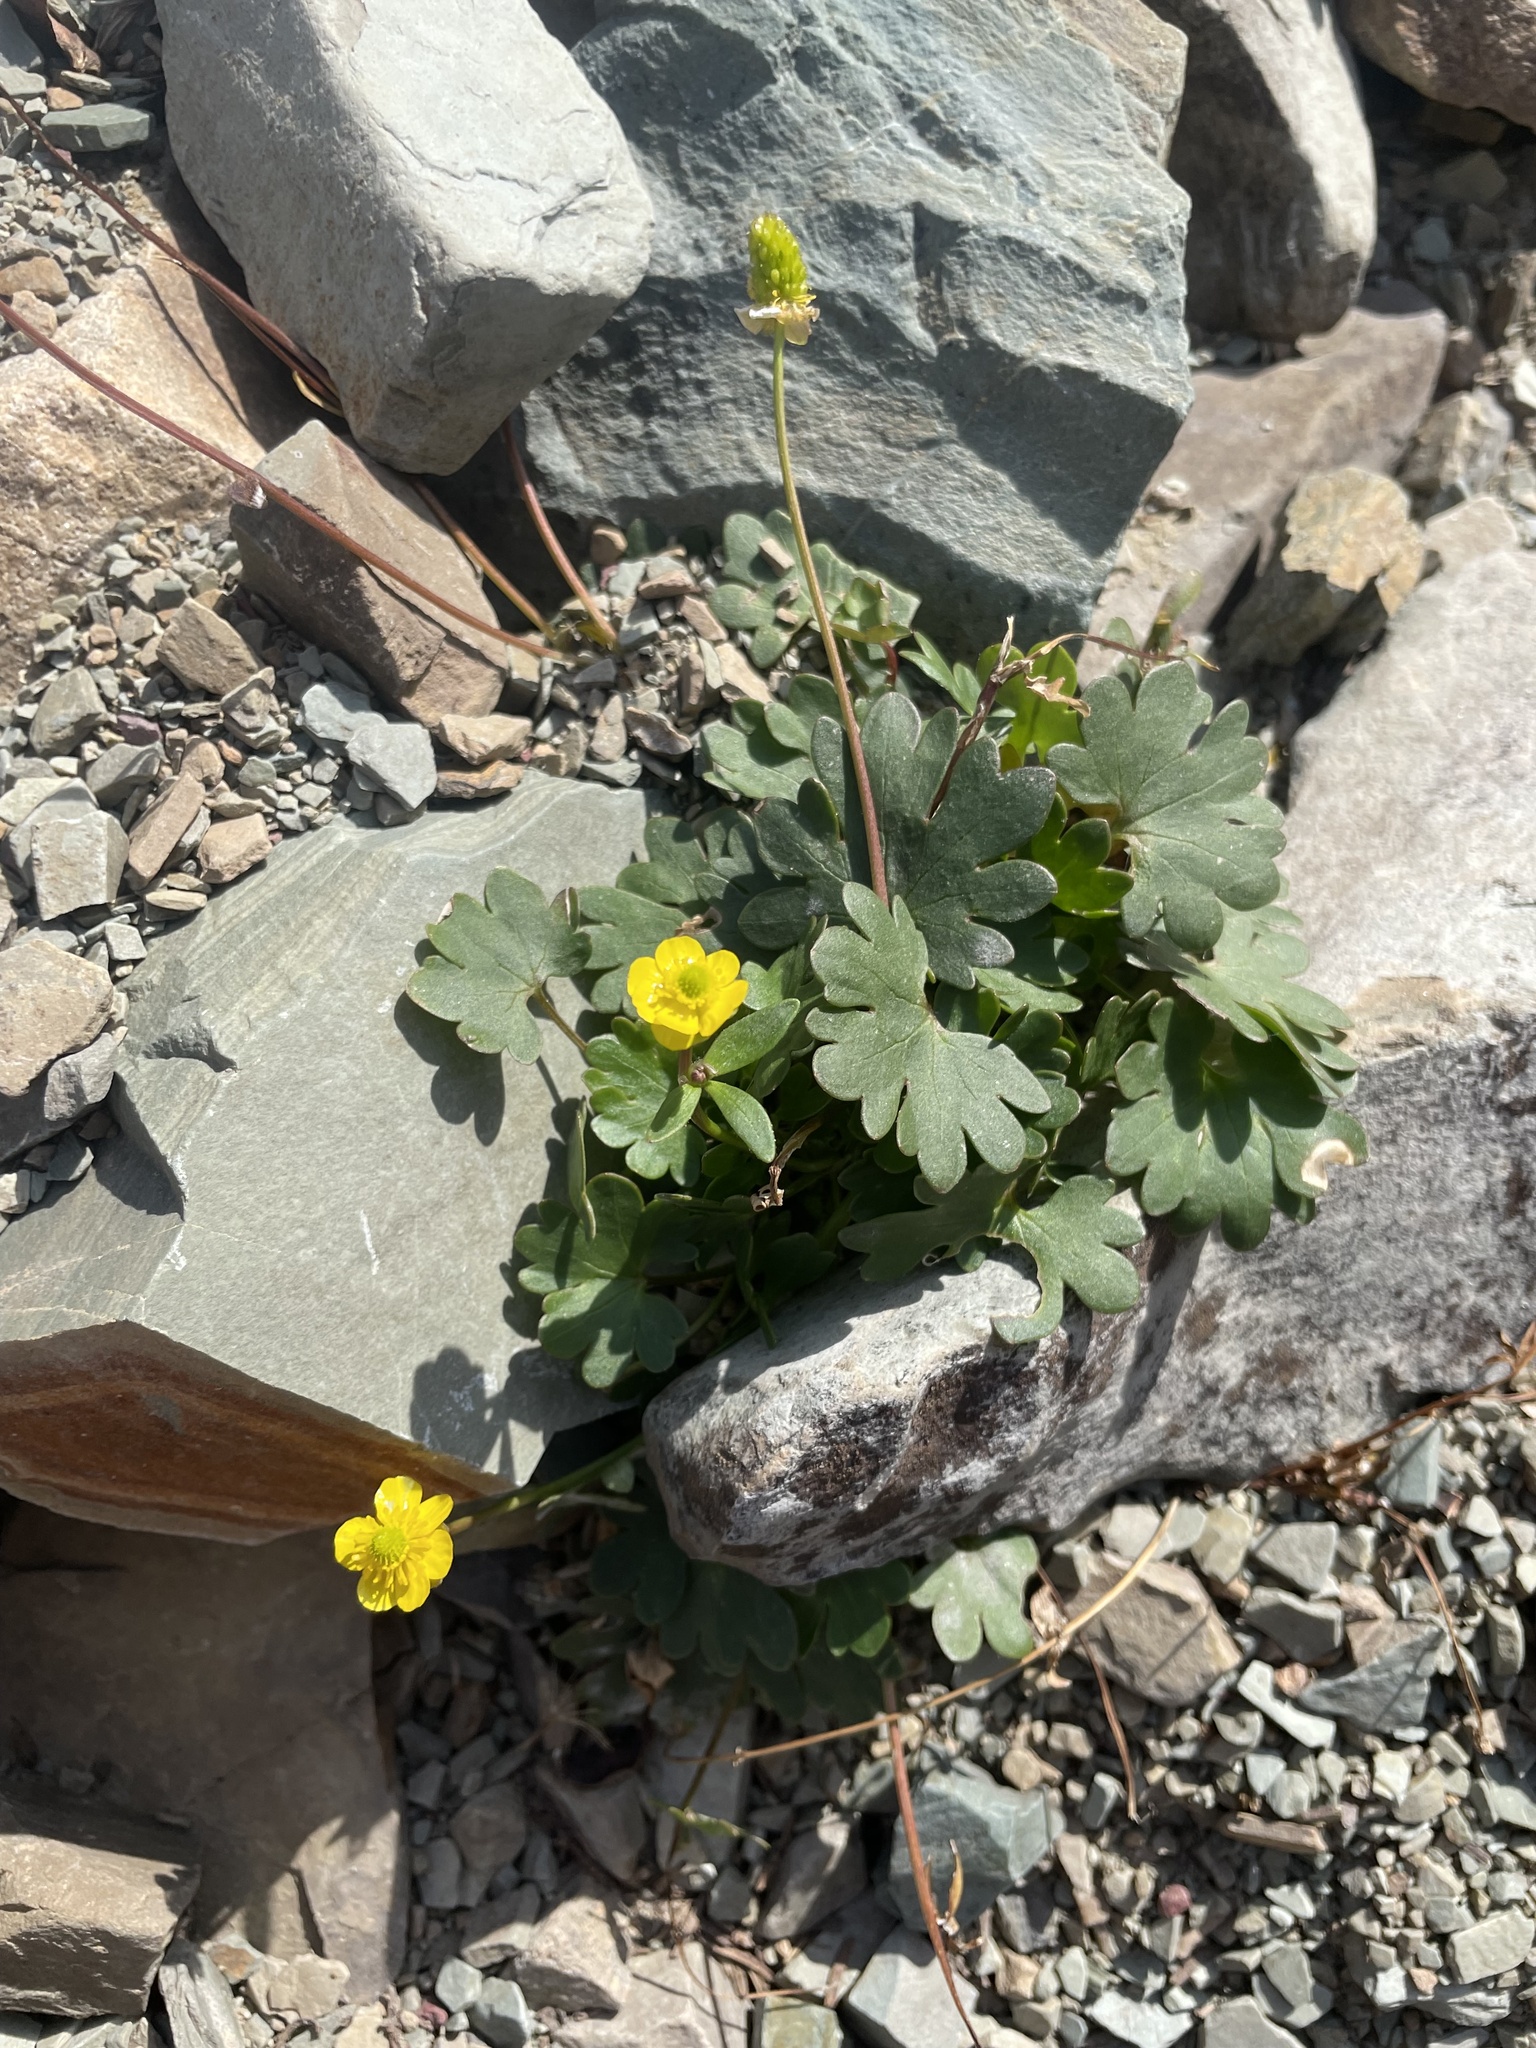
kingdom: Plantae
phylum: Tracheophyta
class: Magnoliopsida
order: Ranunculales
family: Ranunculaceae
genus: Ranunculus
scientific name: Ranunculus eschscholtzii
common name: Eschscholtz's buttercup
